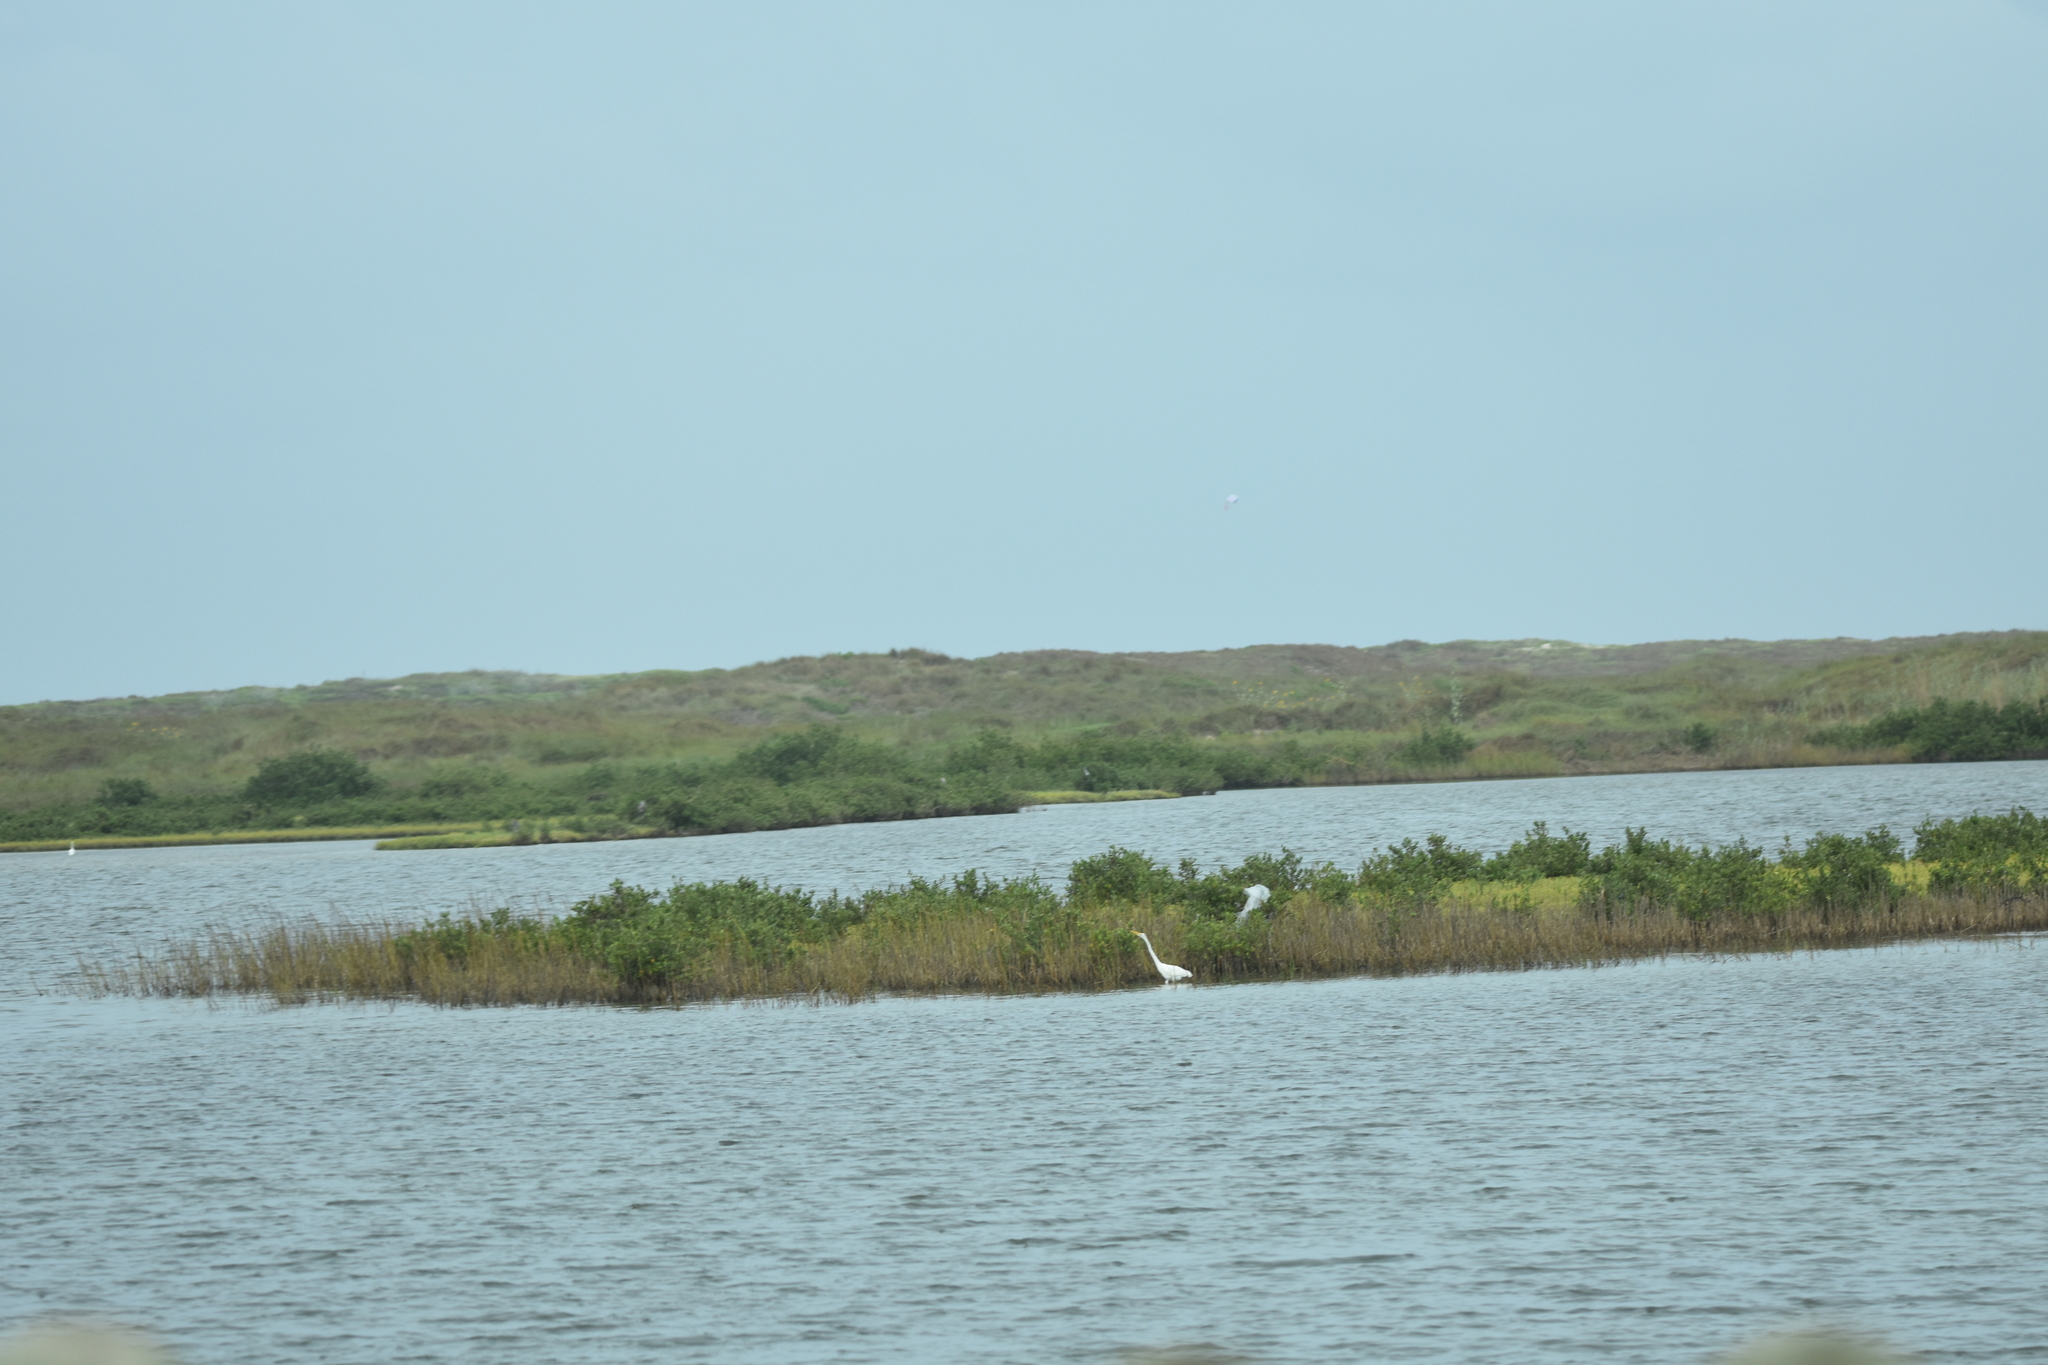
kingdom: Animalia
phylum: Chordata
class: Aves
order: Pelecaniformes
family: Ardeidae
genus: Ardea
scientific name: Ardea alba
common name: Great egret
